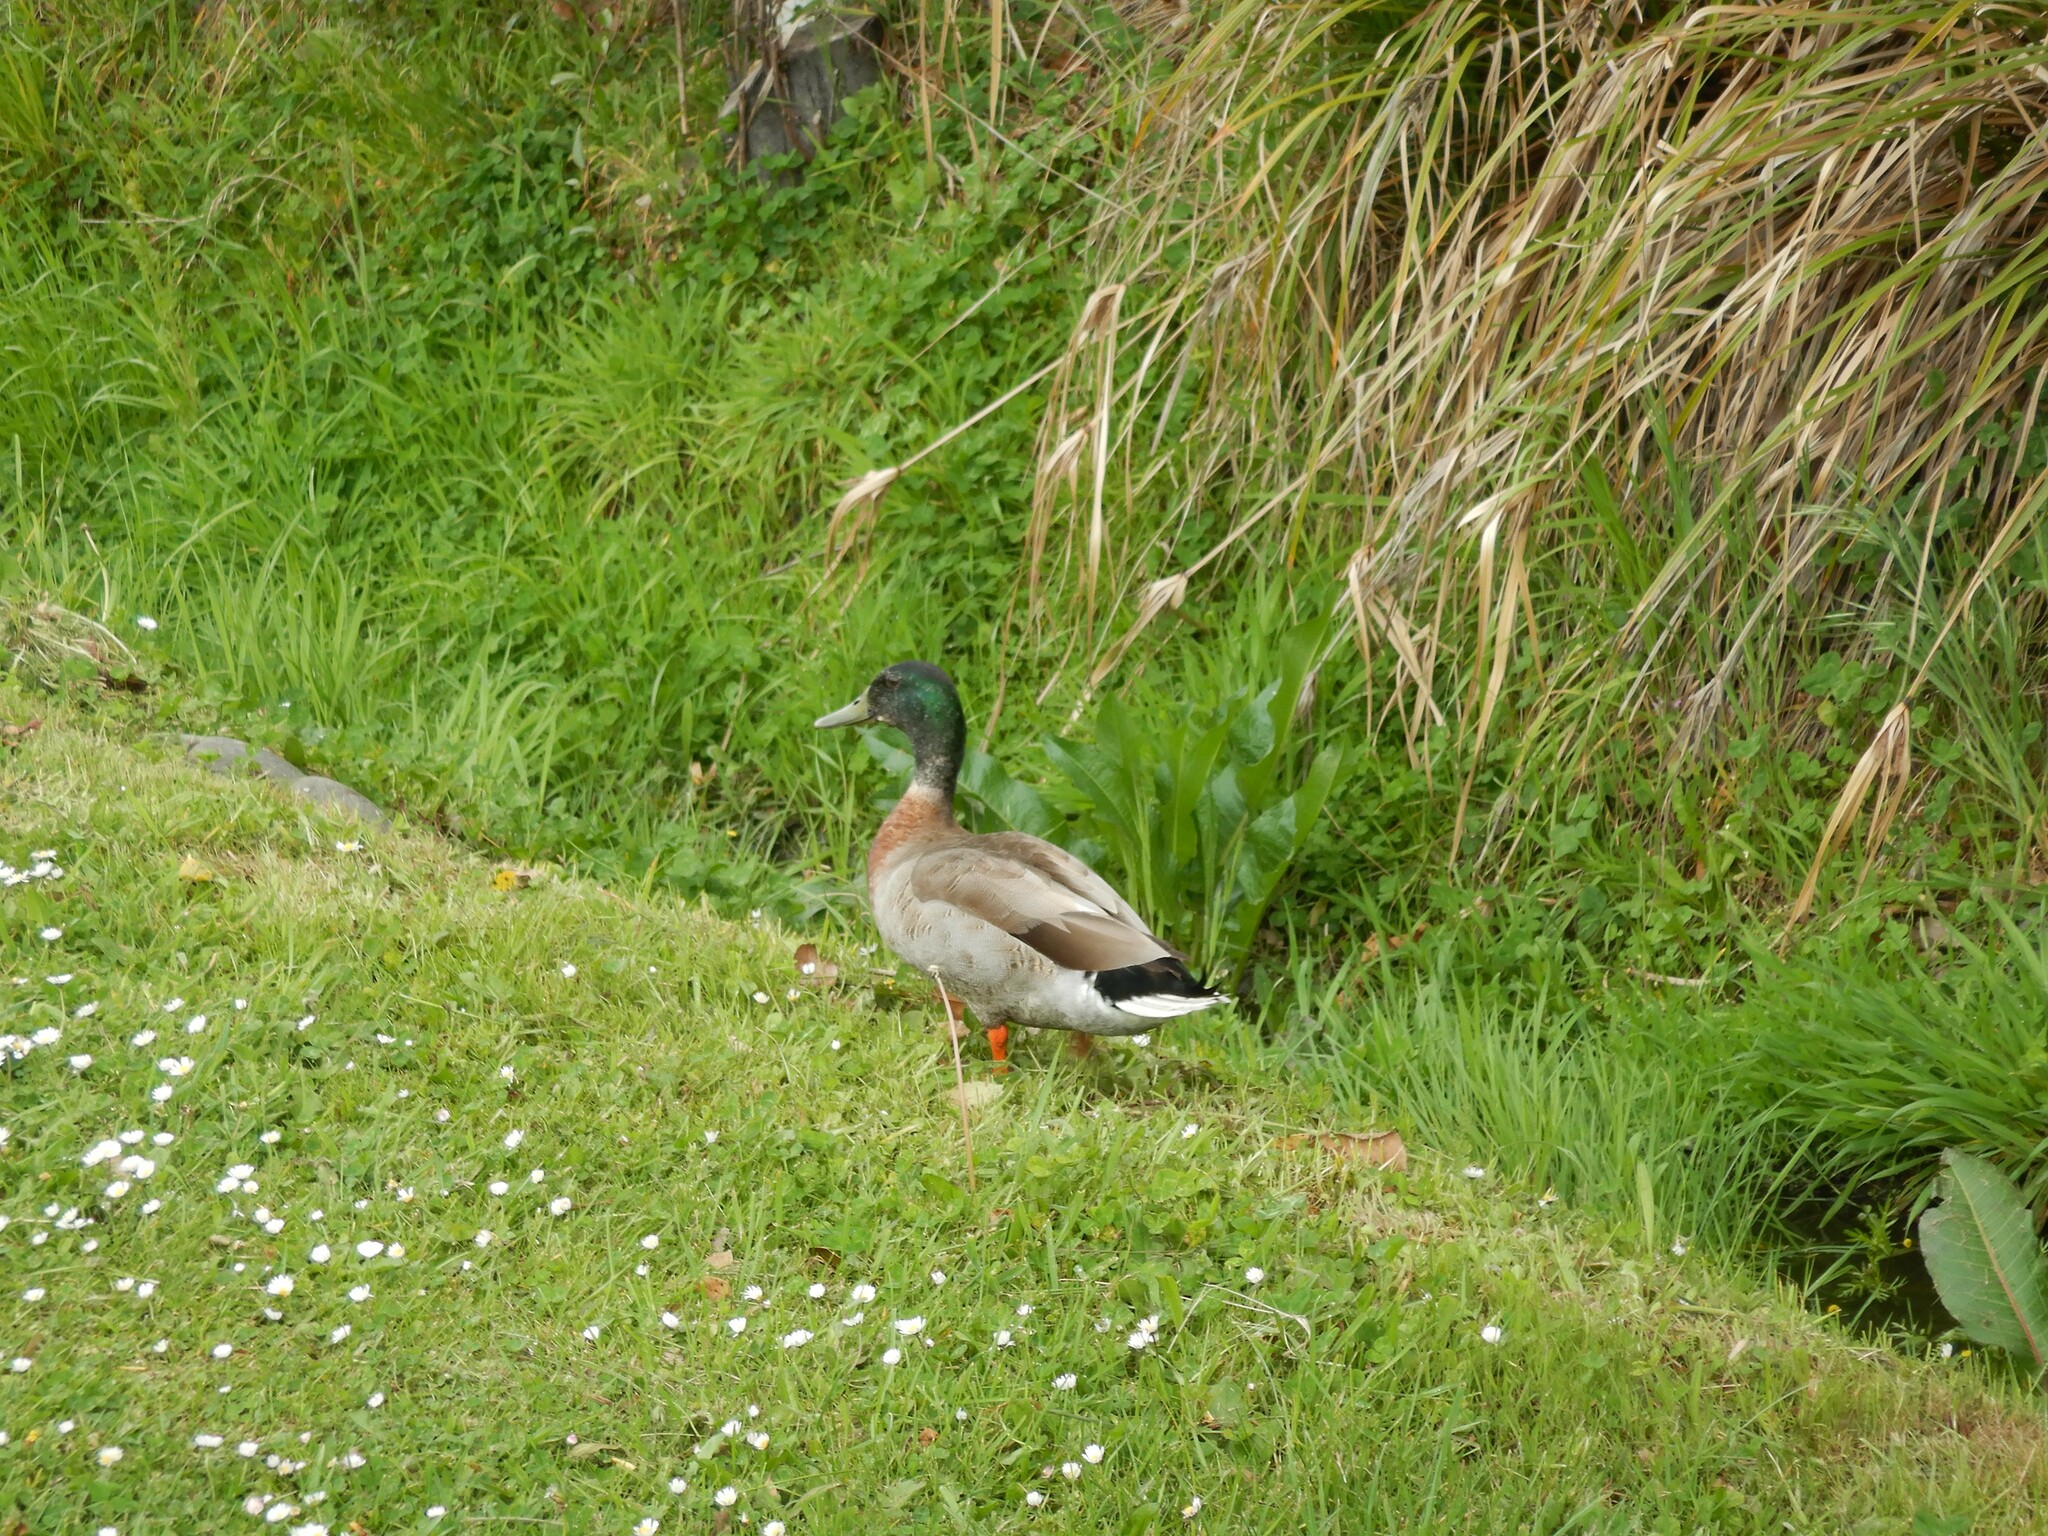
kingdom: Animalia
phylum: Chordata
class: Aves
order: Anseriformes
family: Anatidae
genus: Anas
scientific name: Anas platyrhynchos
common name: Mallard
